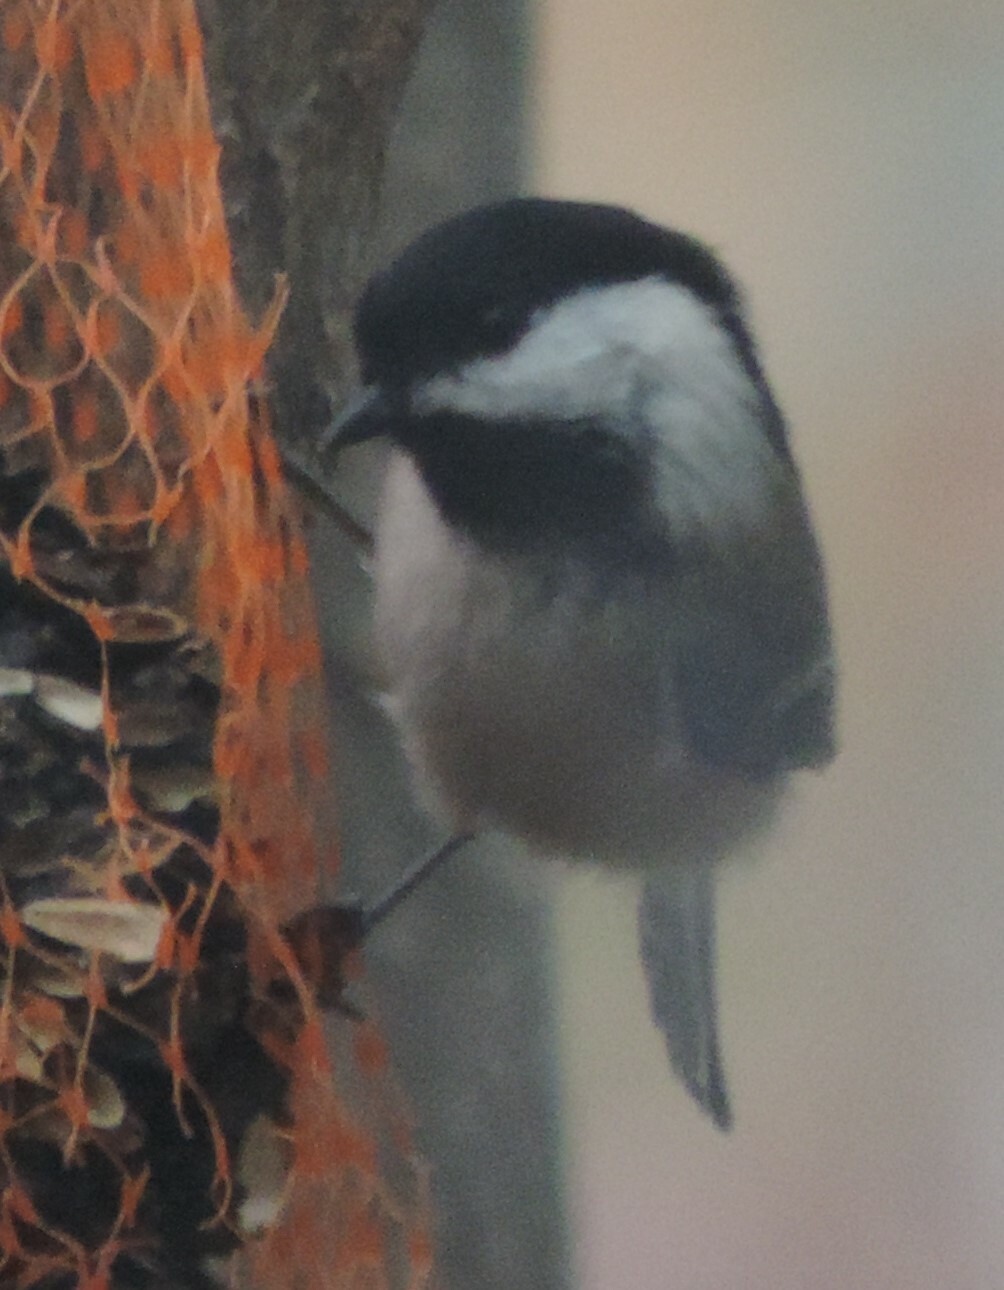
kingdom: Animalia
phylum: Chordata
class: Aves
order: Passeriformes
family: Paridae
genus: Poecile
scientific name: Poecile atricapillus
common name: Black-capped chickadee
